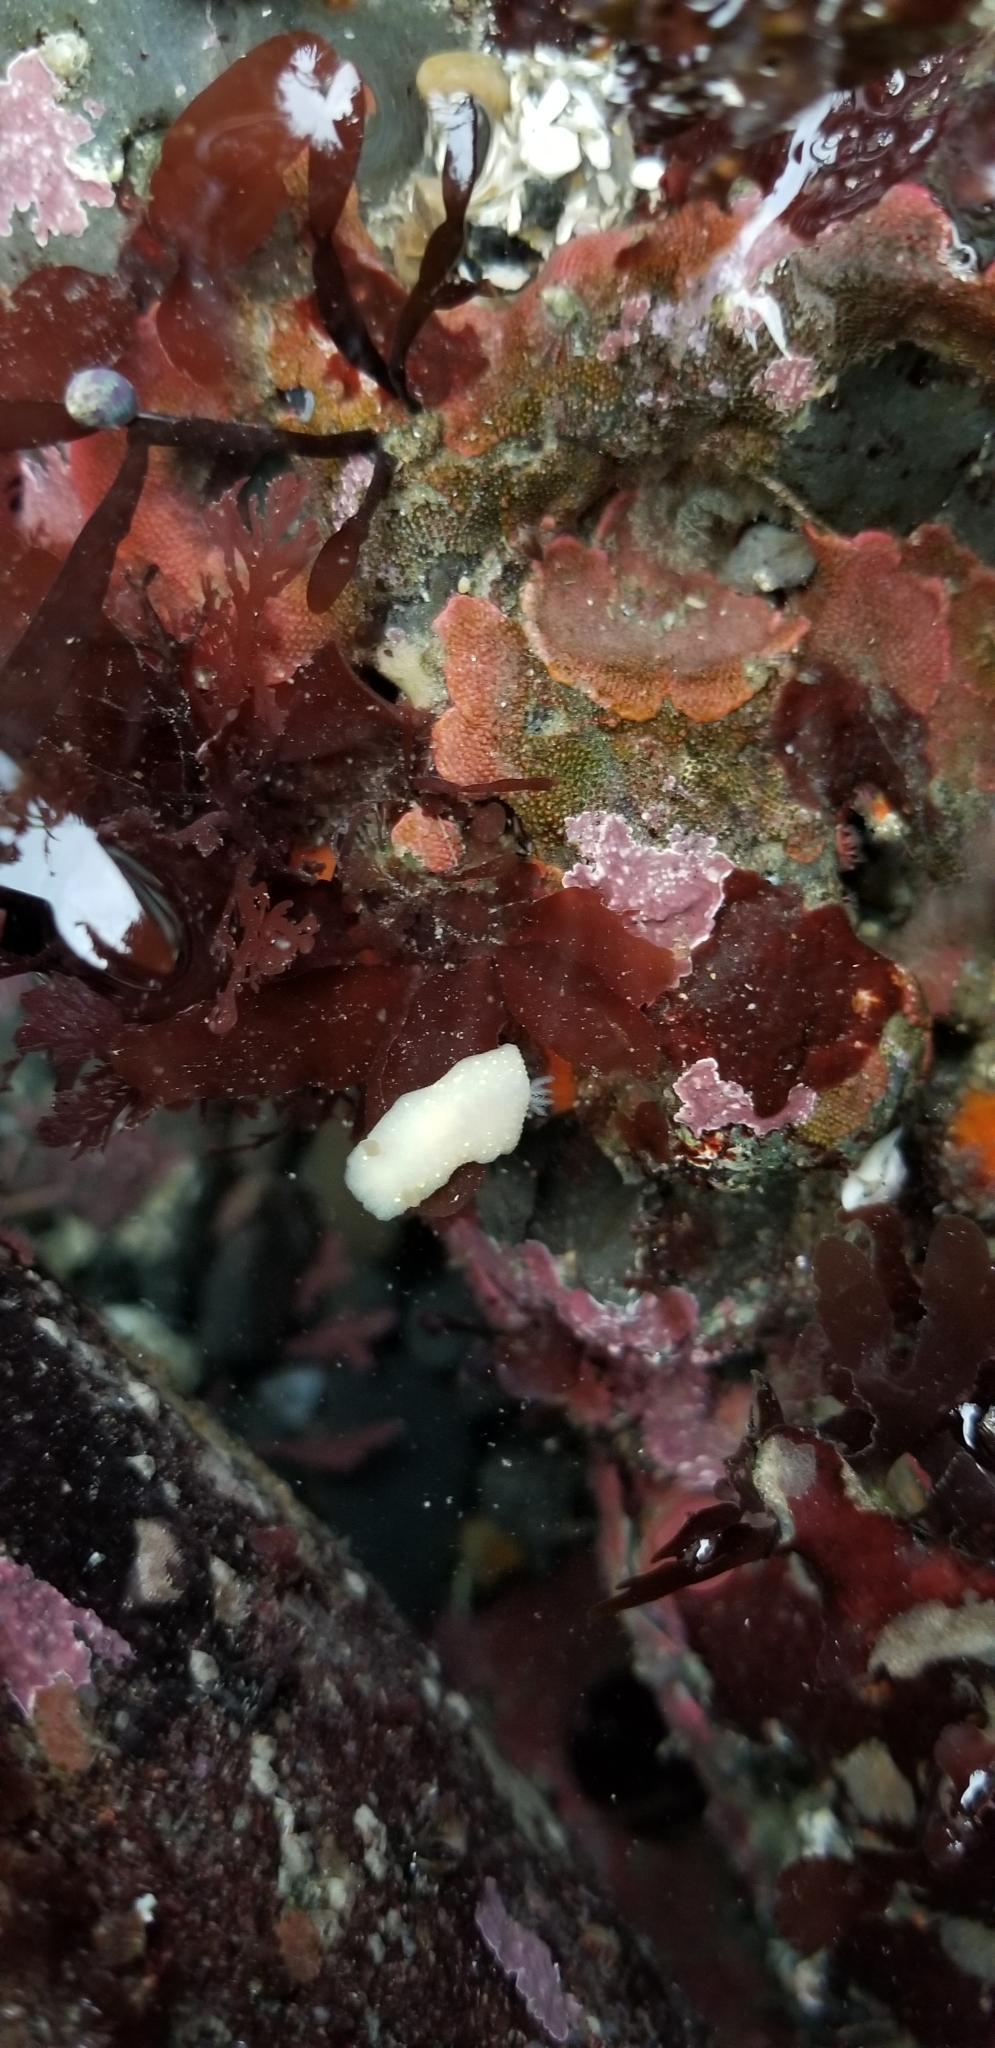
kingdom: Animalia
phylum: Mollusca
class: Gastropoda
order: Nudibranchia
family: Cadlinidae
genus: Cadlina
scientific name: Cadlina modesta
